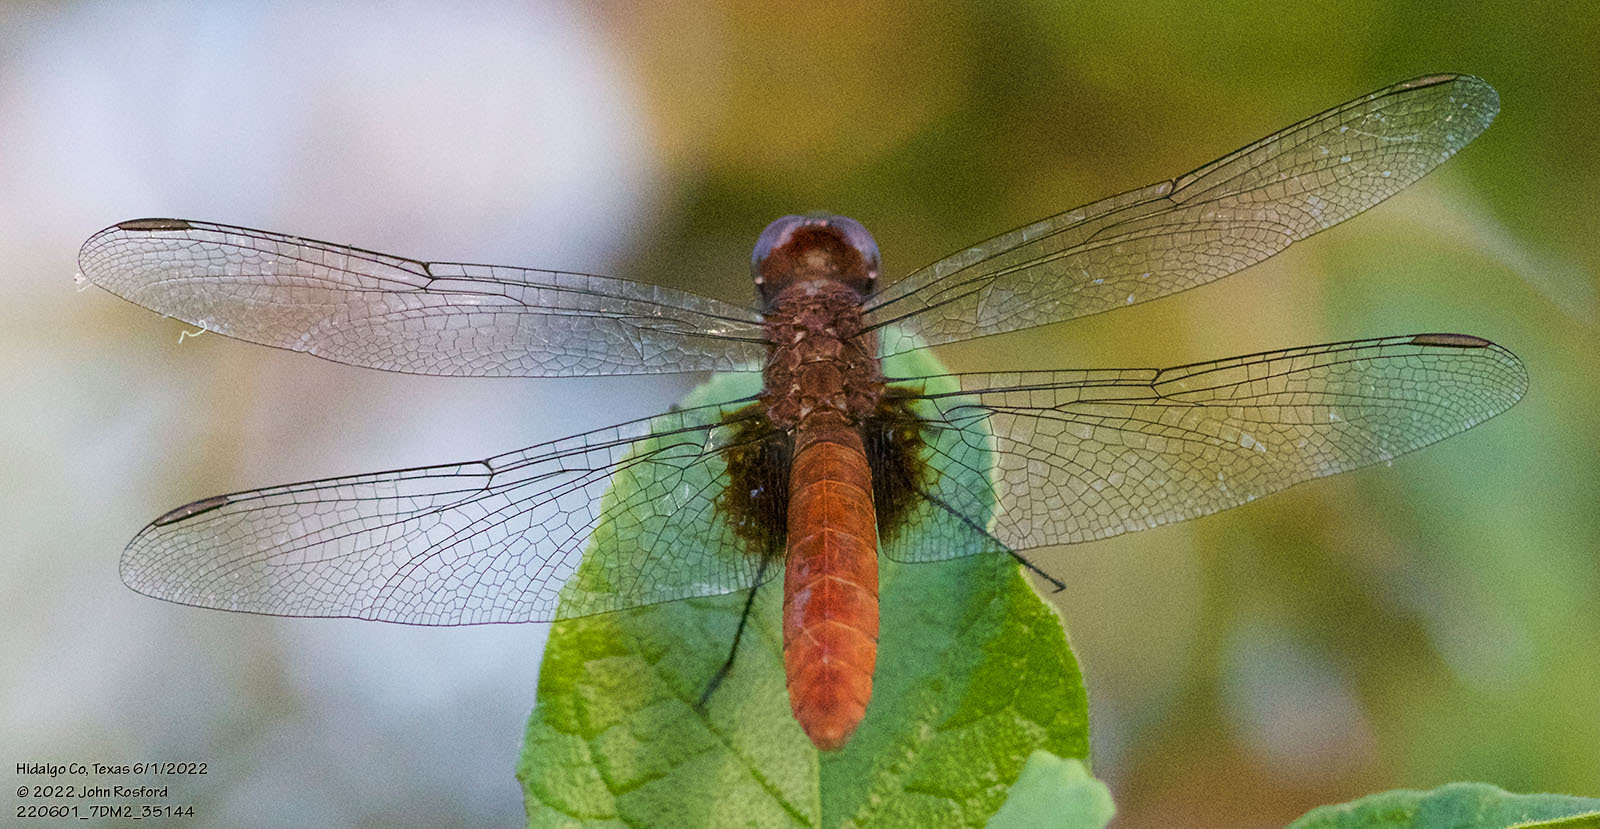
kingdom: Animalia
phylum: Arthropoda
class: Insecta
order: Odonata
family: Libellulidae
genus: Planiplax
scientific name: Planiplax sanguiniventris
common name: Mexican scarlet-tail
